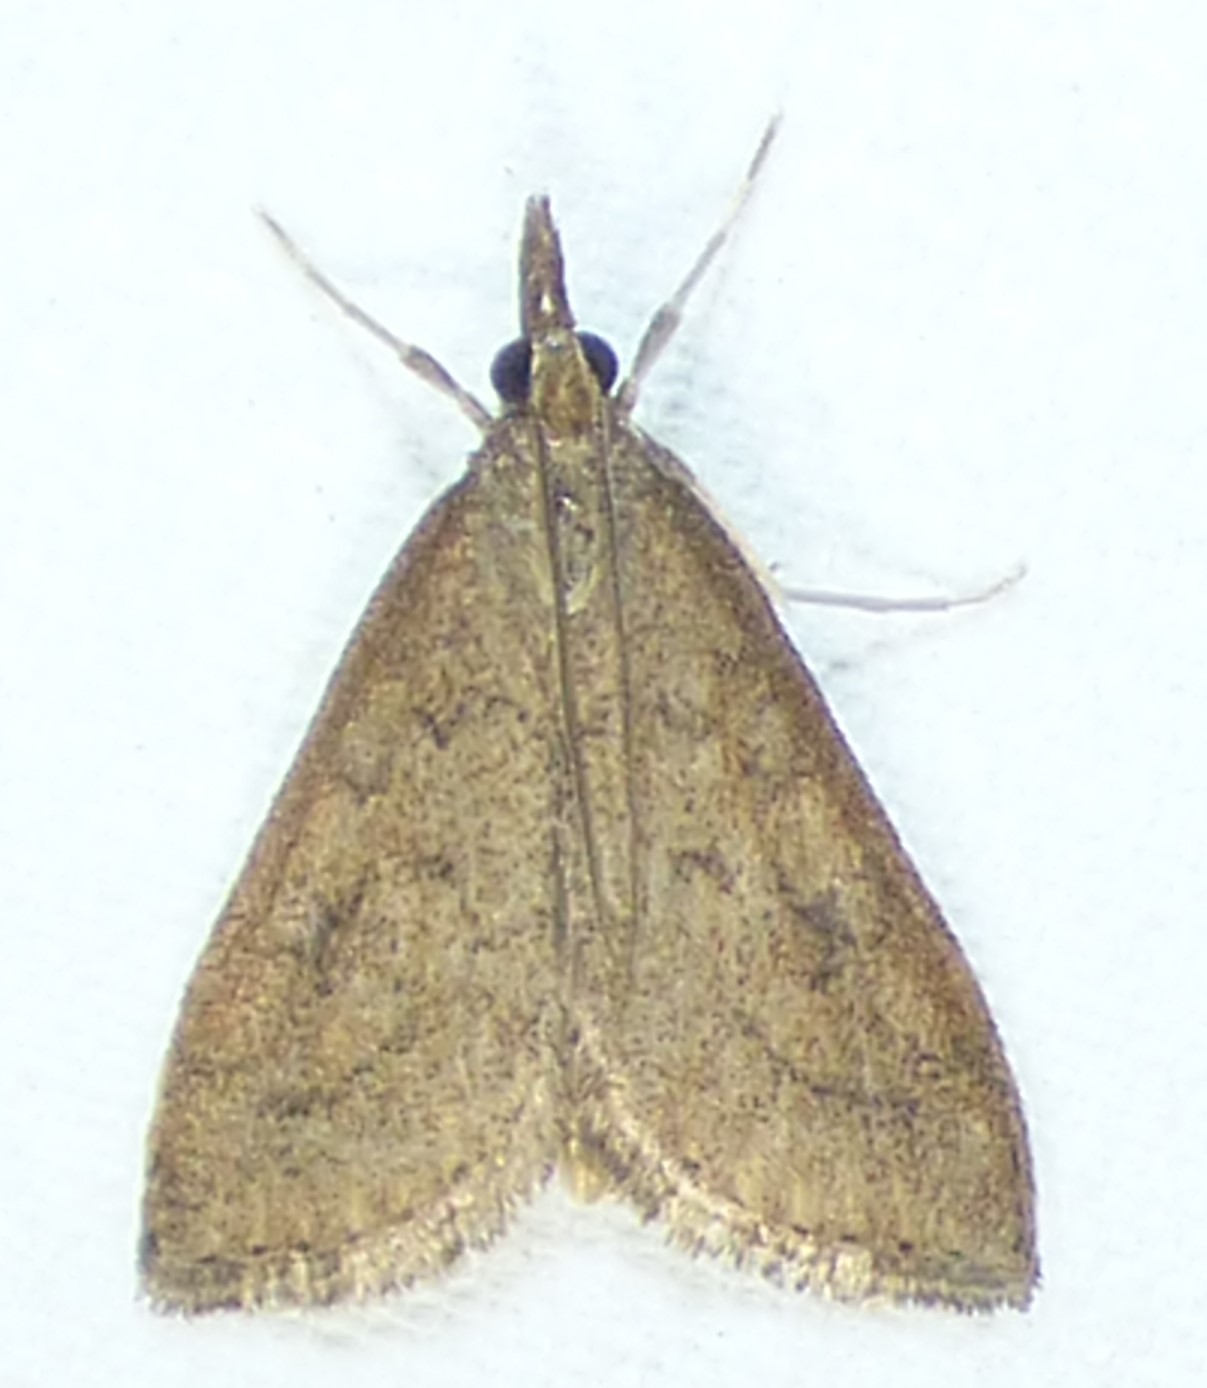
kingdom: Animalia
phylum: Arthropoda
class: Insecta
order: Lepidoptera
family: Crambidae
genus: Udea
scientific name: Udea rubigalis
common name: Celery leaftier moth
